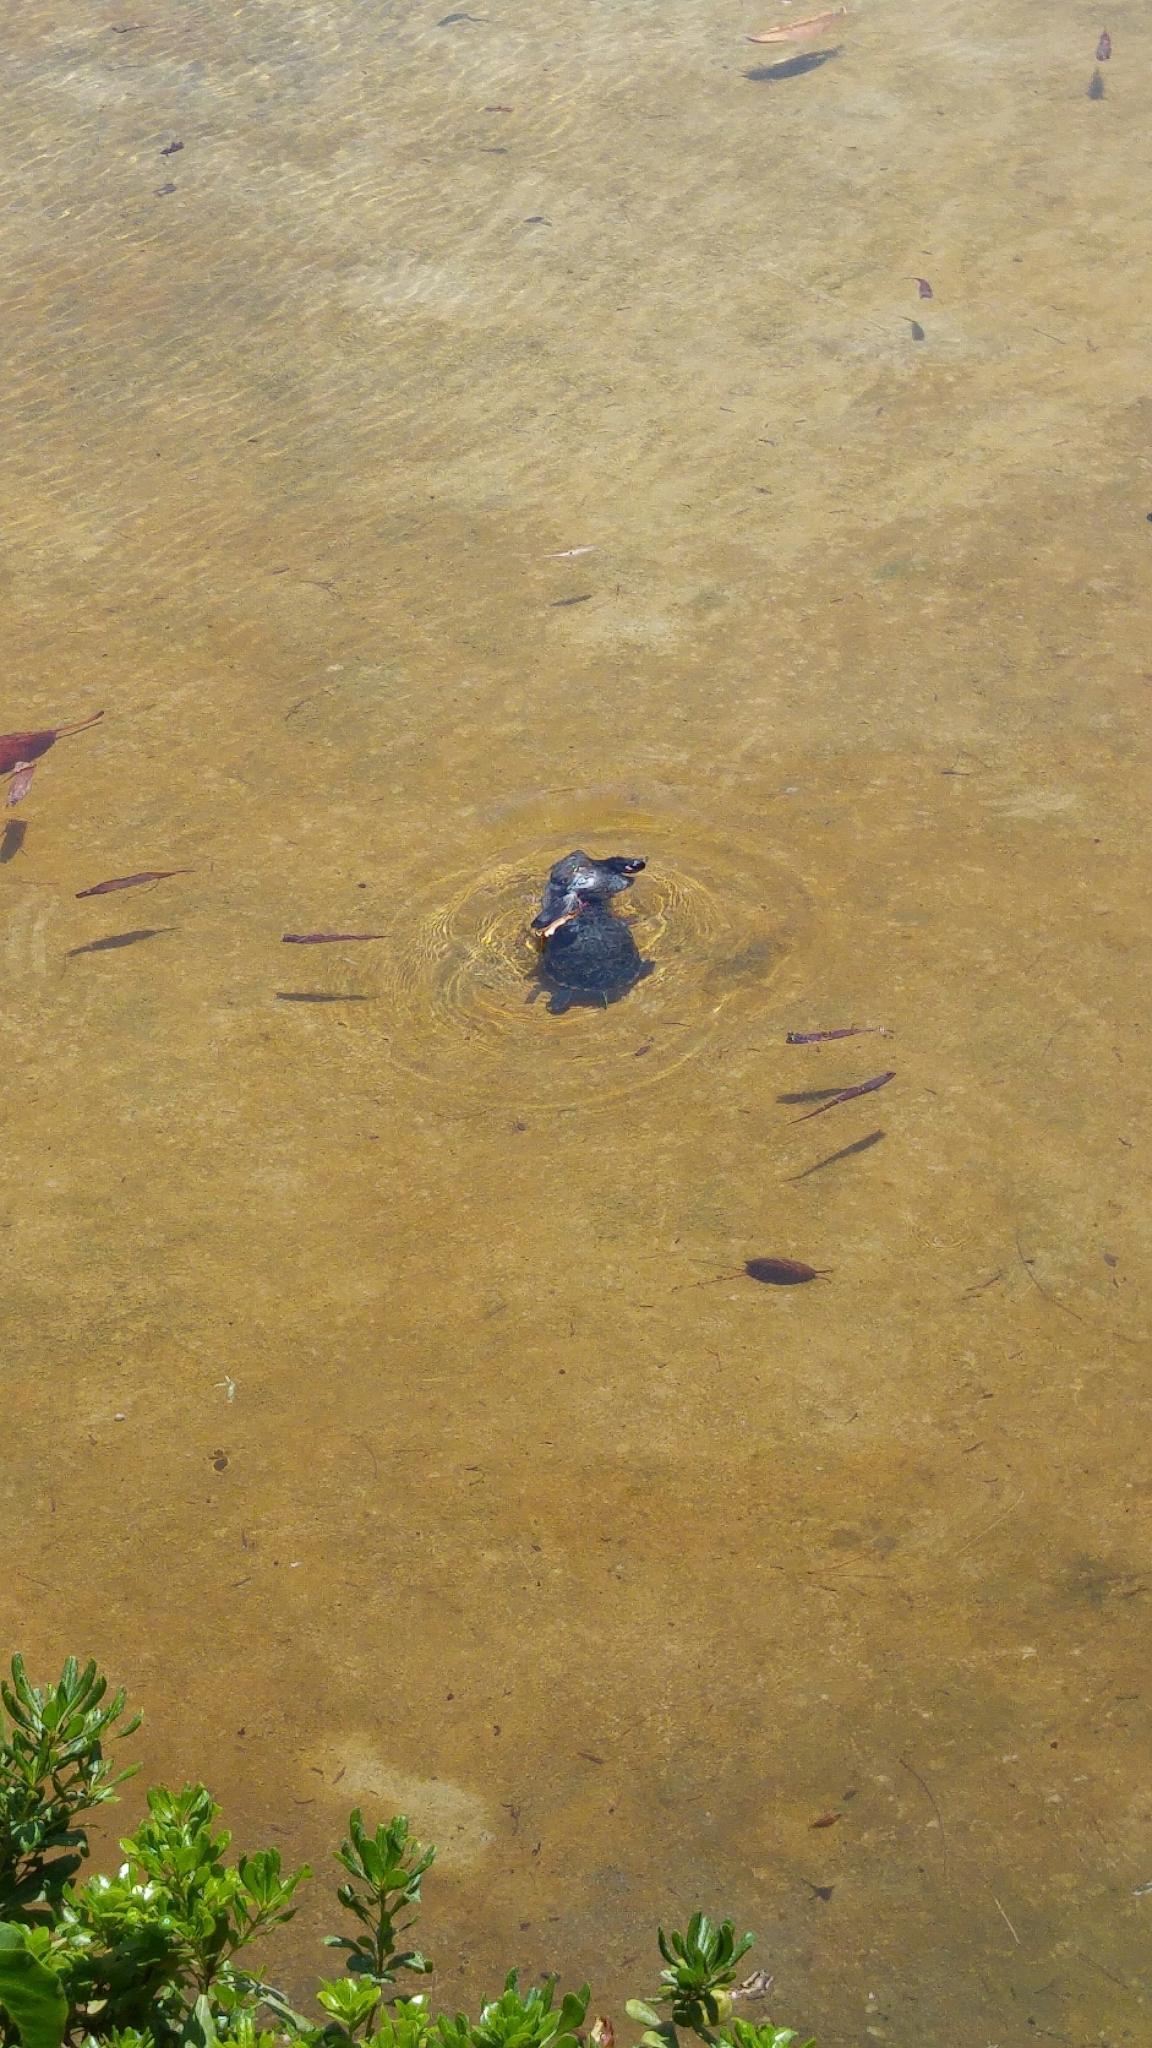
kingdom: Animalia
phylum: Chordata
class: Testudines
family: Emydidae
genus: Trachemys
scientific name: Trachemys scripta
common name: Slider
